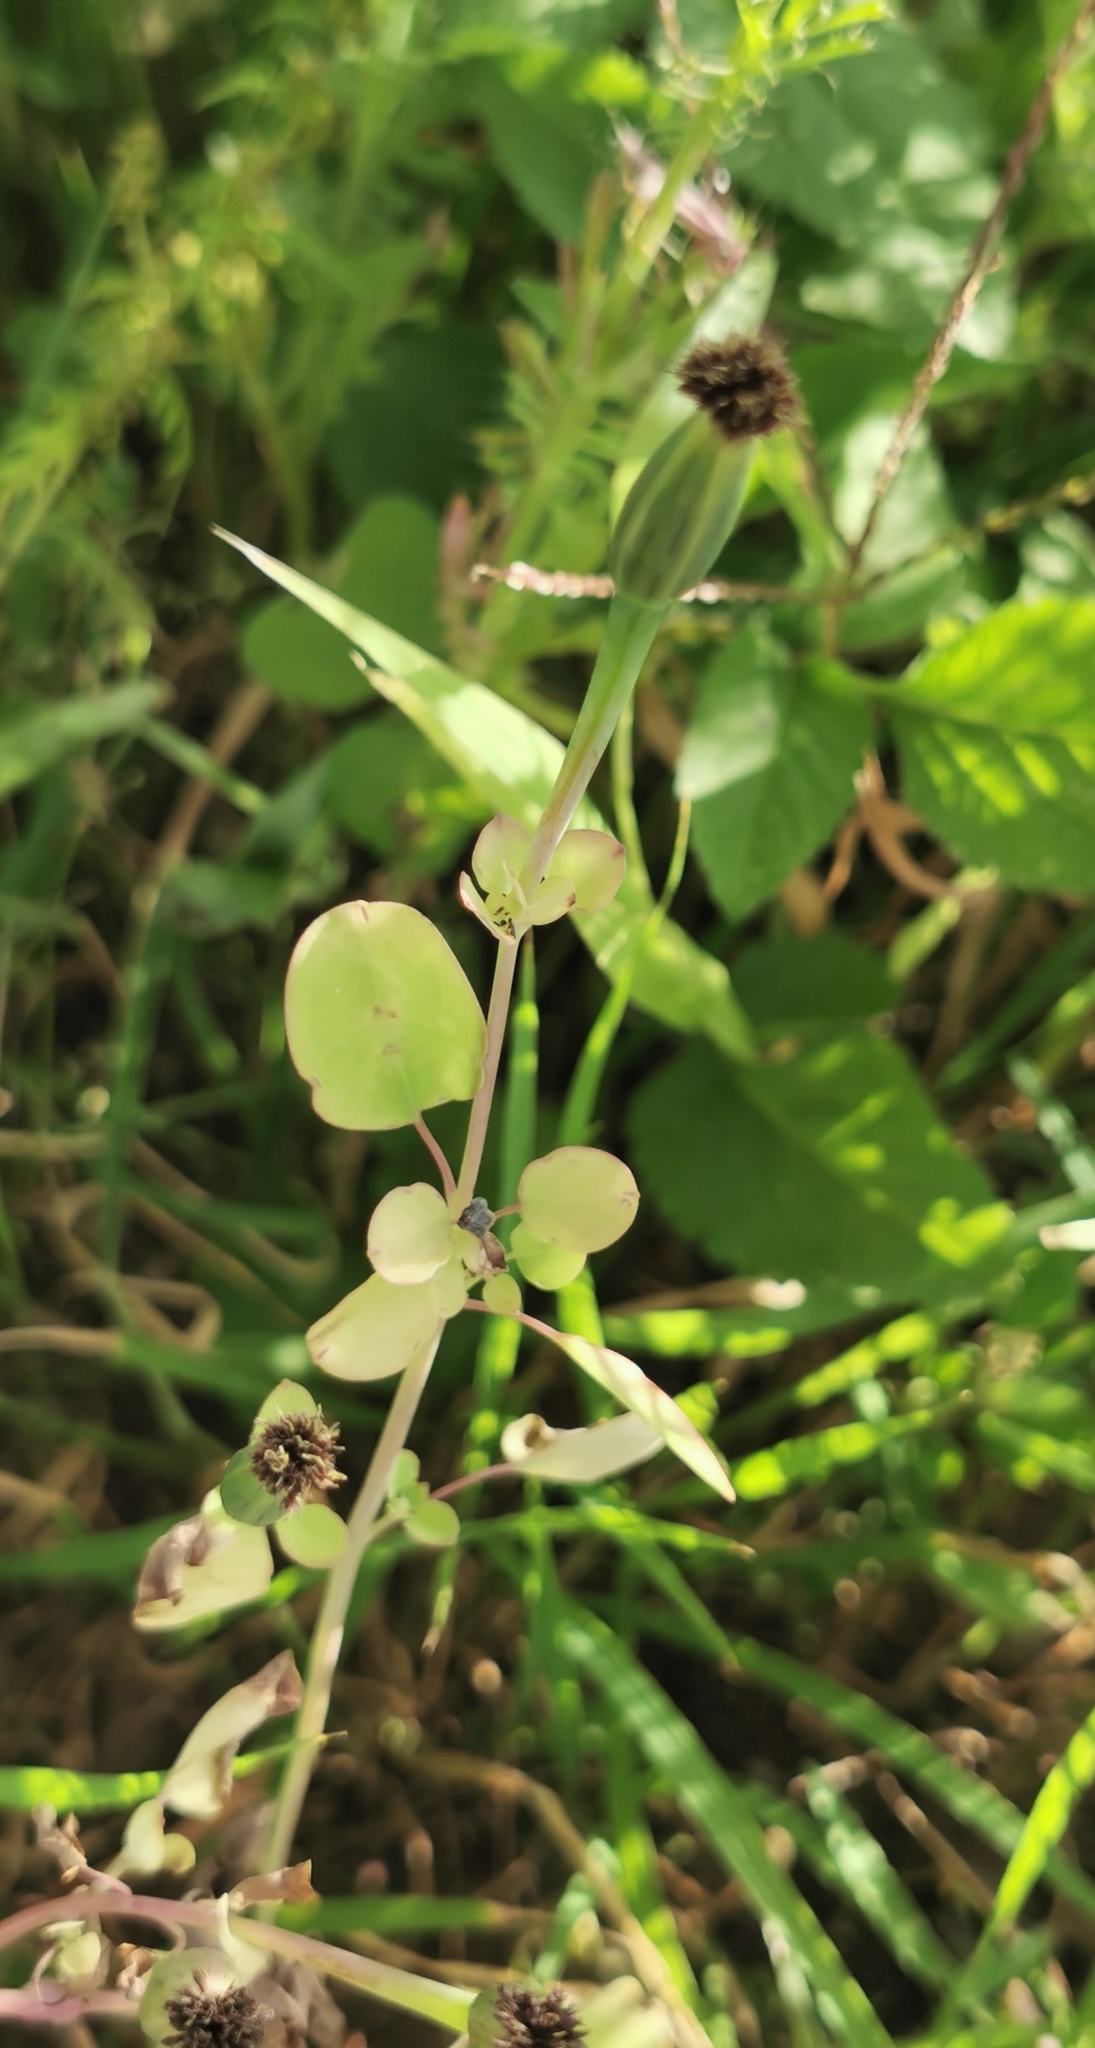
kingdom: Plantae
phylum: Tracheophyta
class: Magnoliopsida
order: Asterales
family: Asteraceae
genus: Porophyllum
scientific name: Porophyllum ruderale
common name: Yerba porosa
